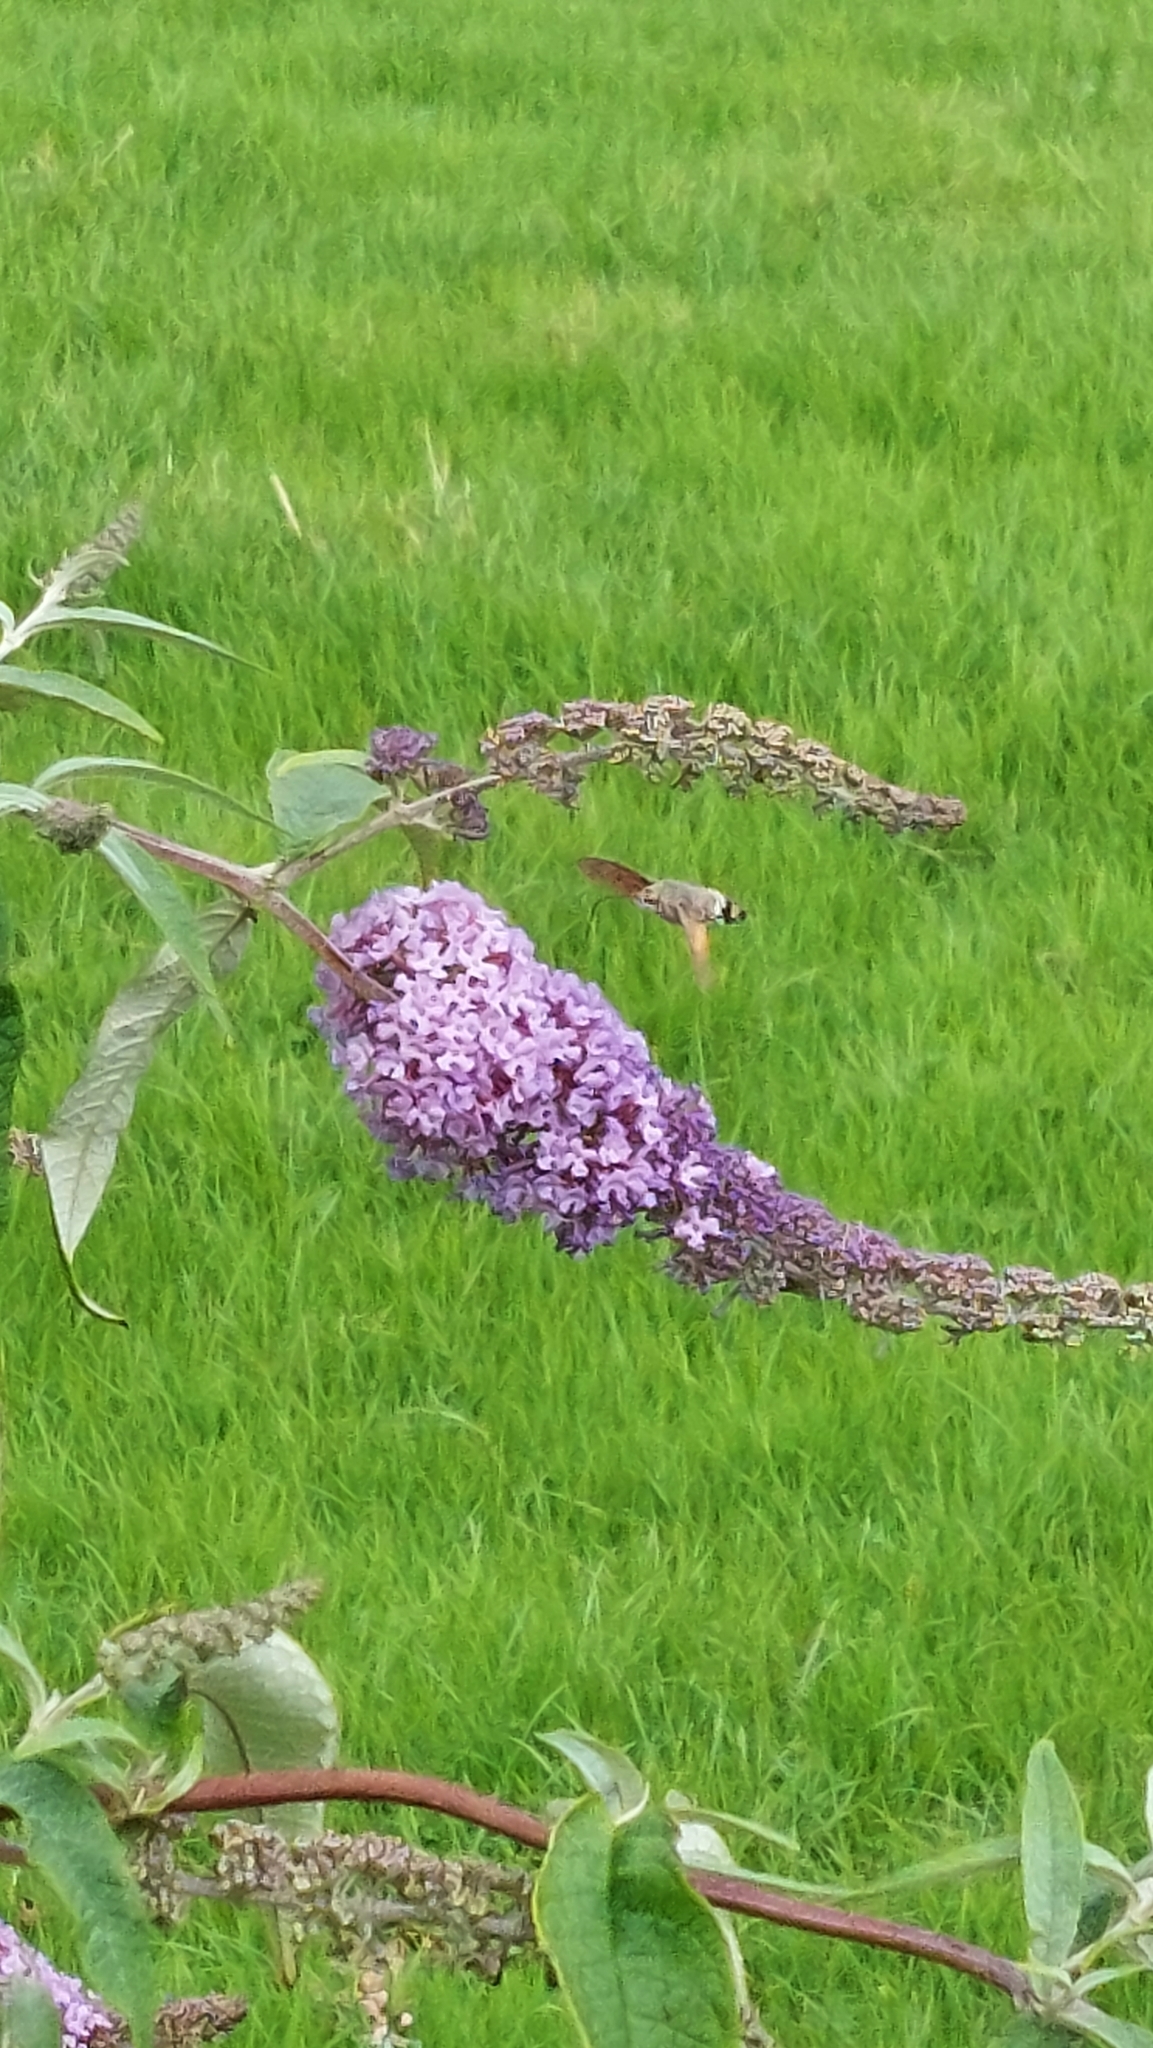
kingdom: Animalia
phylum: Arthropoda
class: Insecta
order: Lepidoptera
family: Sphingidae
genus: Macroglossum
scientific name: Macroglossum stellatarum
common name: Humming-bird hawk-moth
